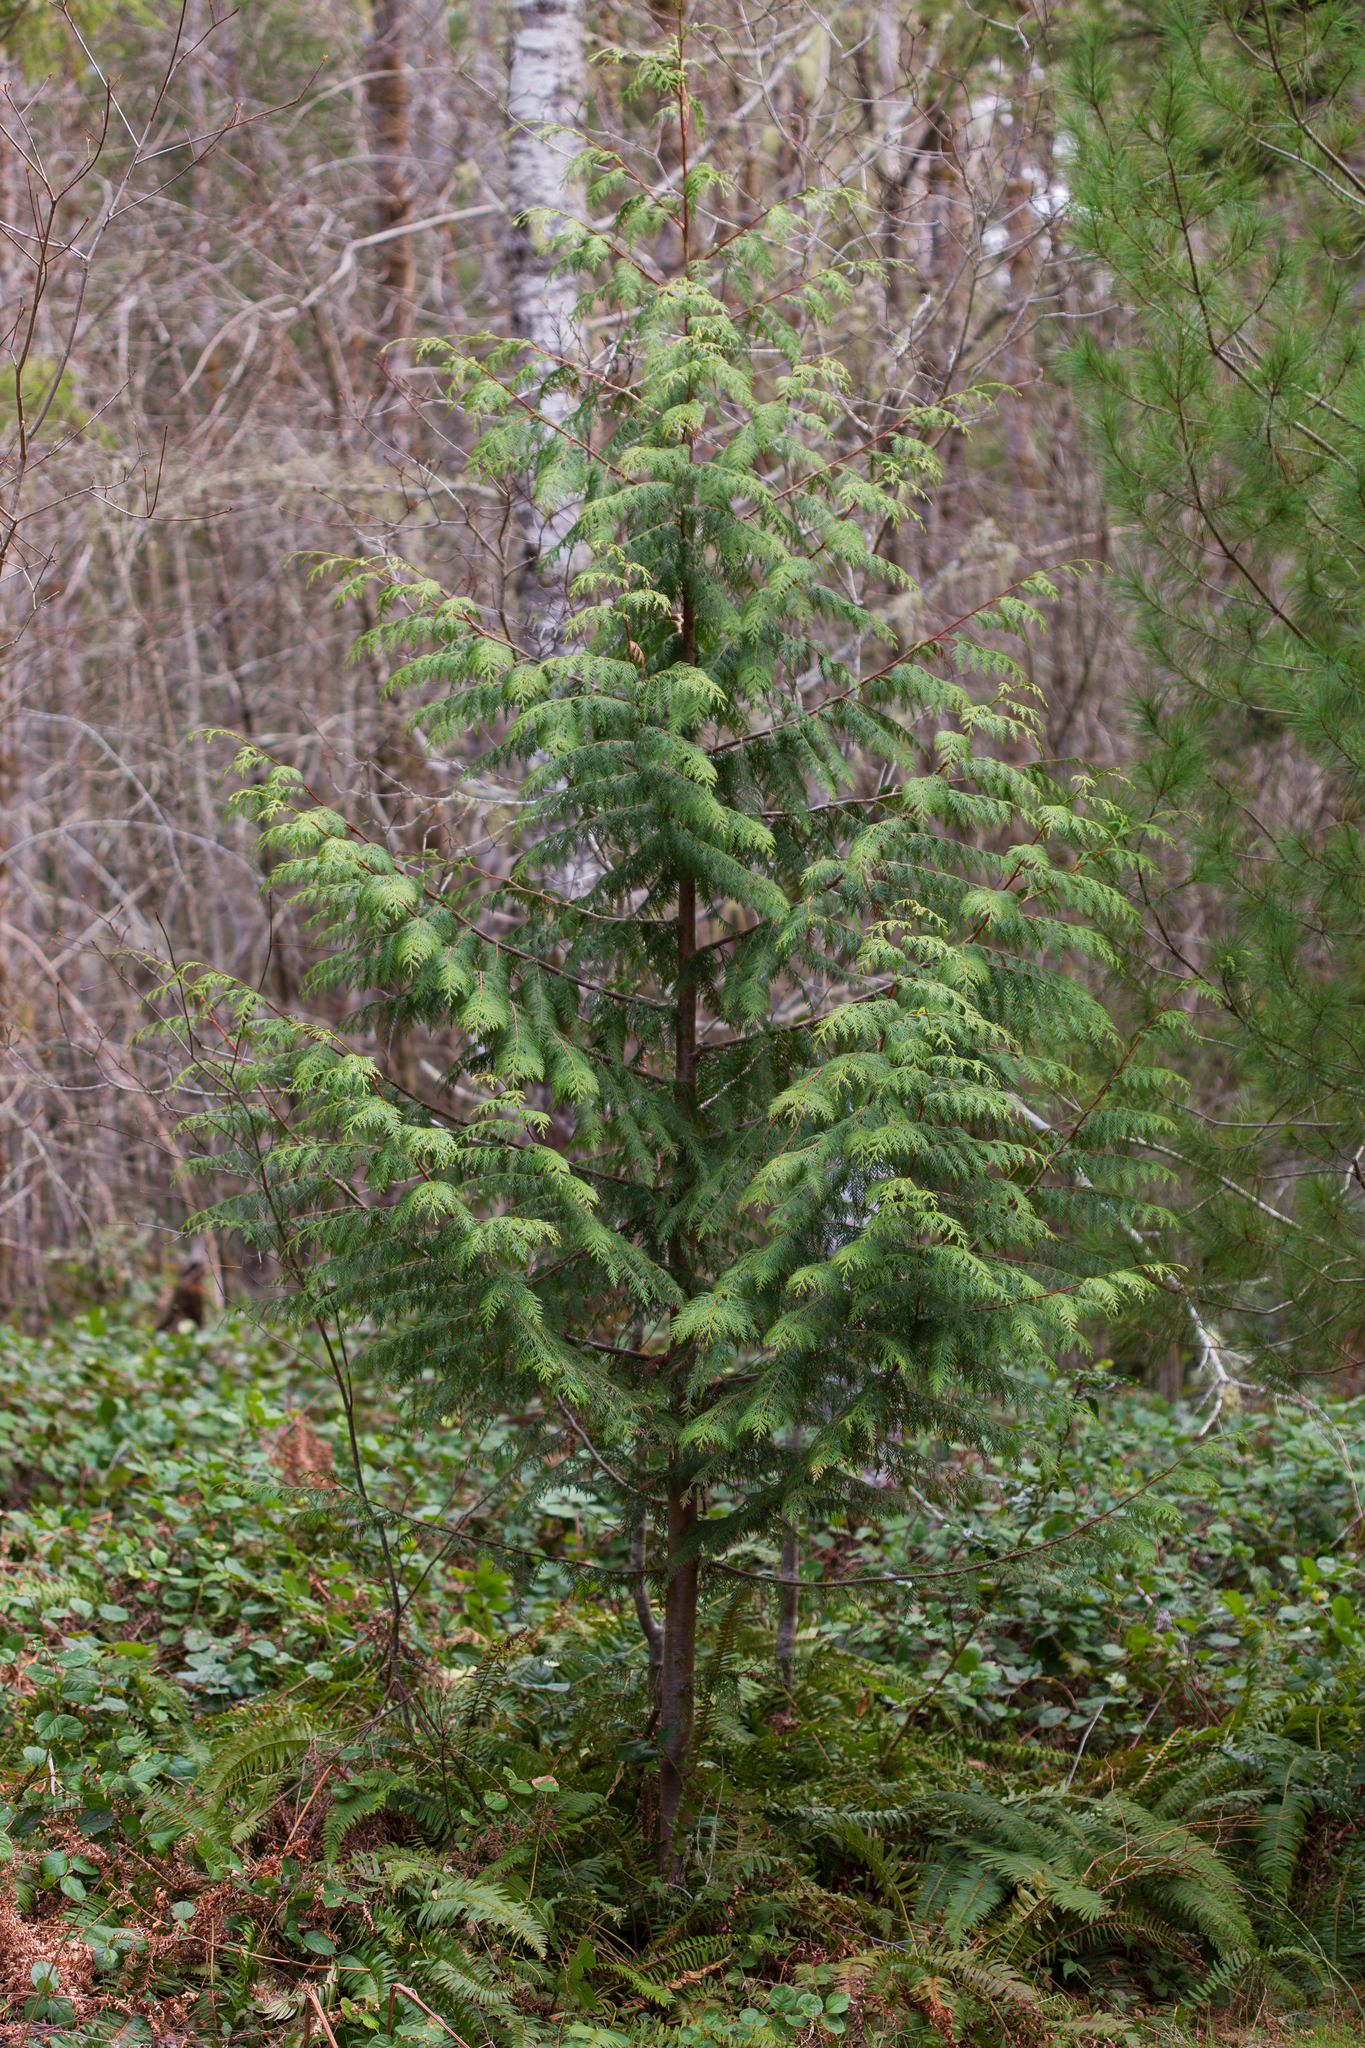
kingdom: Plantae
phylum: Tracheophyta
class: Pinopsida
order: Pinales
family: Cupressaceae
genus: Thuja
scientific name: Thuja plicata
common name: Western red-cedar
